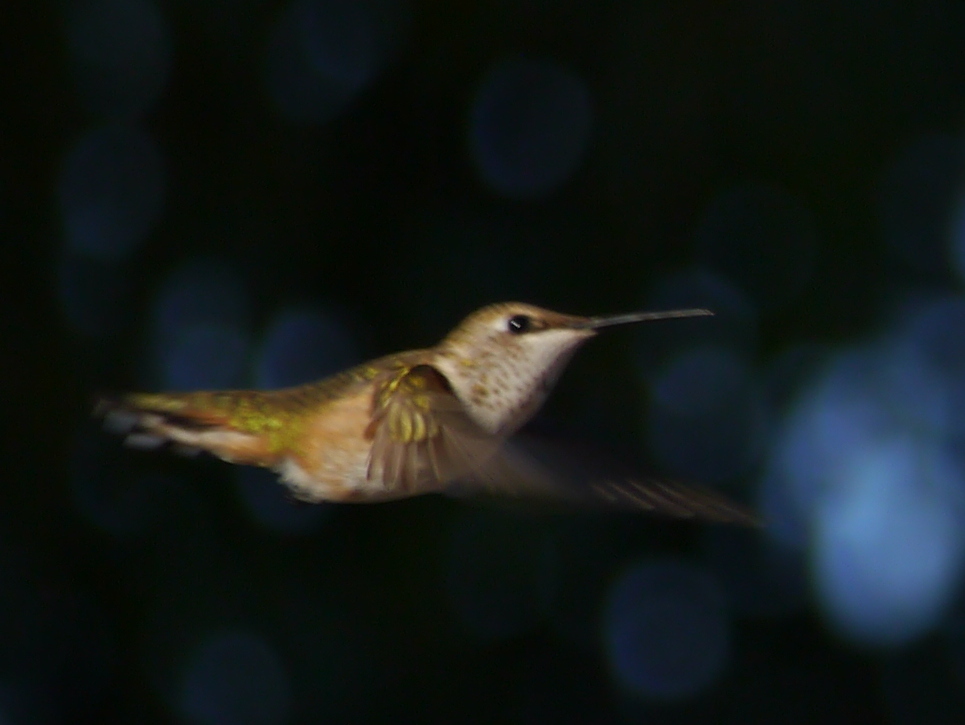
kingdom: Animalia
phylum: Chordata
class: Aves
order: Apodiformes
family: Trochilidae
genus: Selasphorus
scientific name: Selasphorus rufus
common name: Rufous hummingbird
